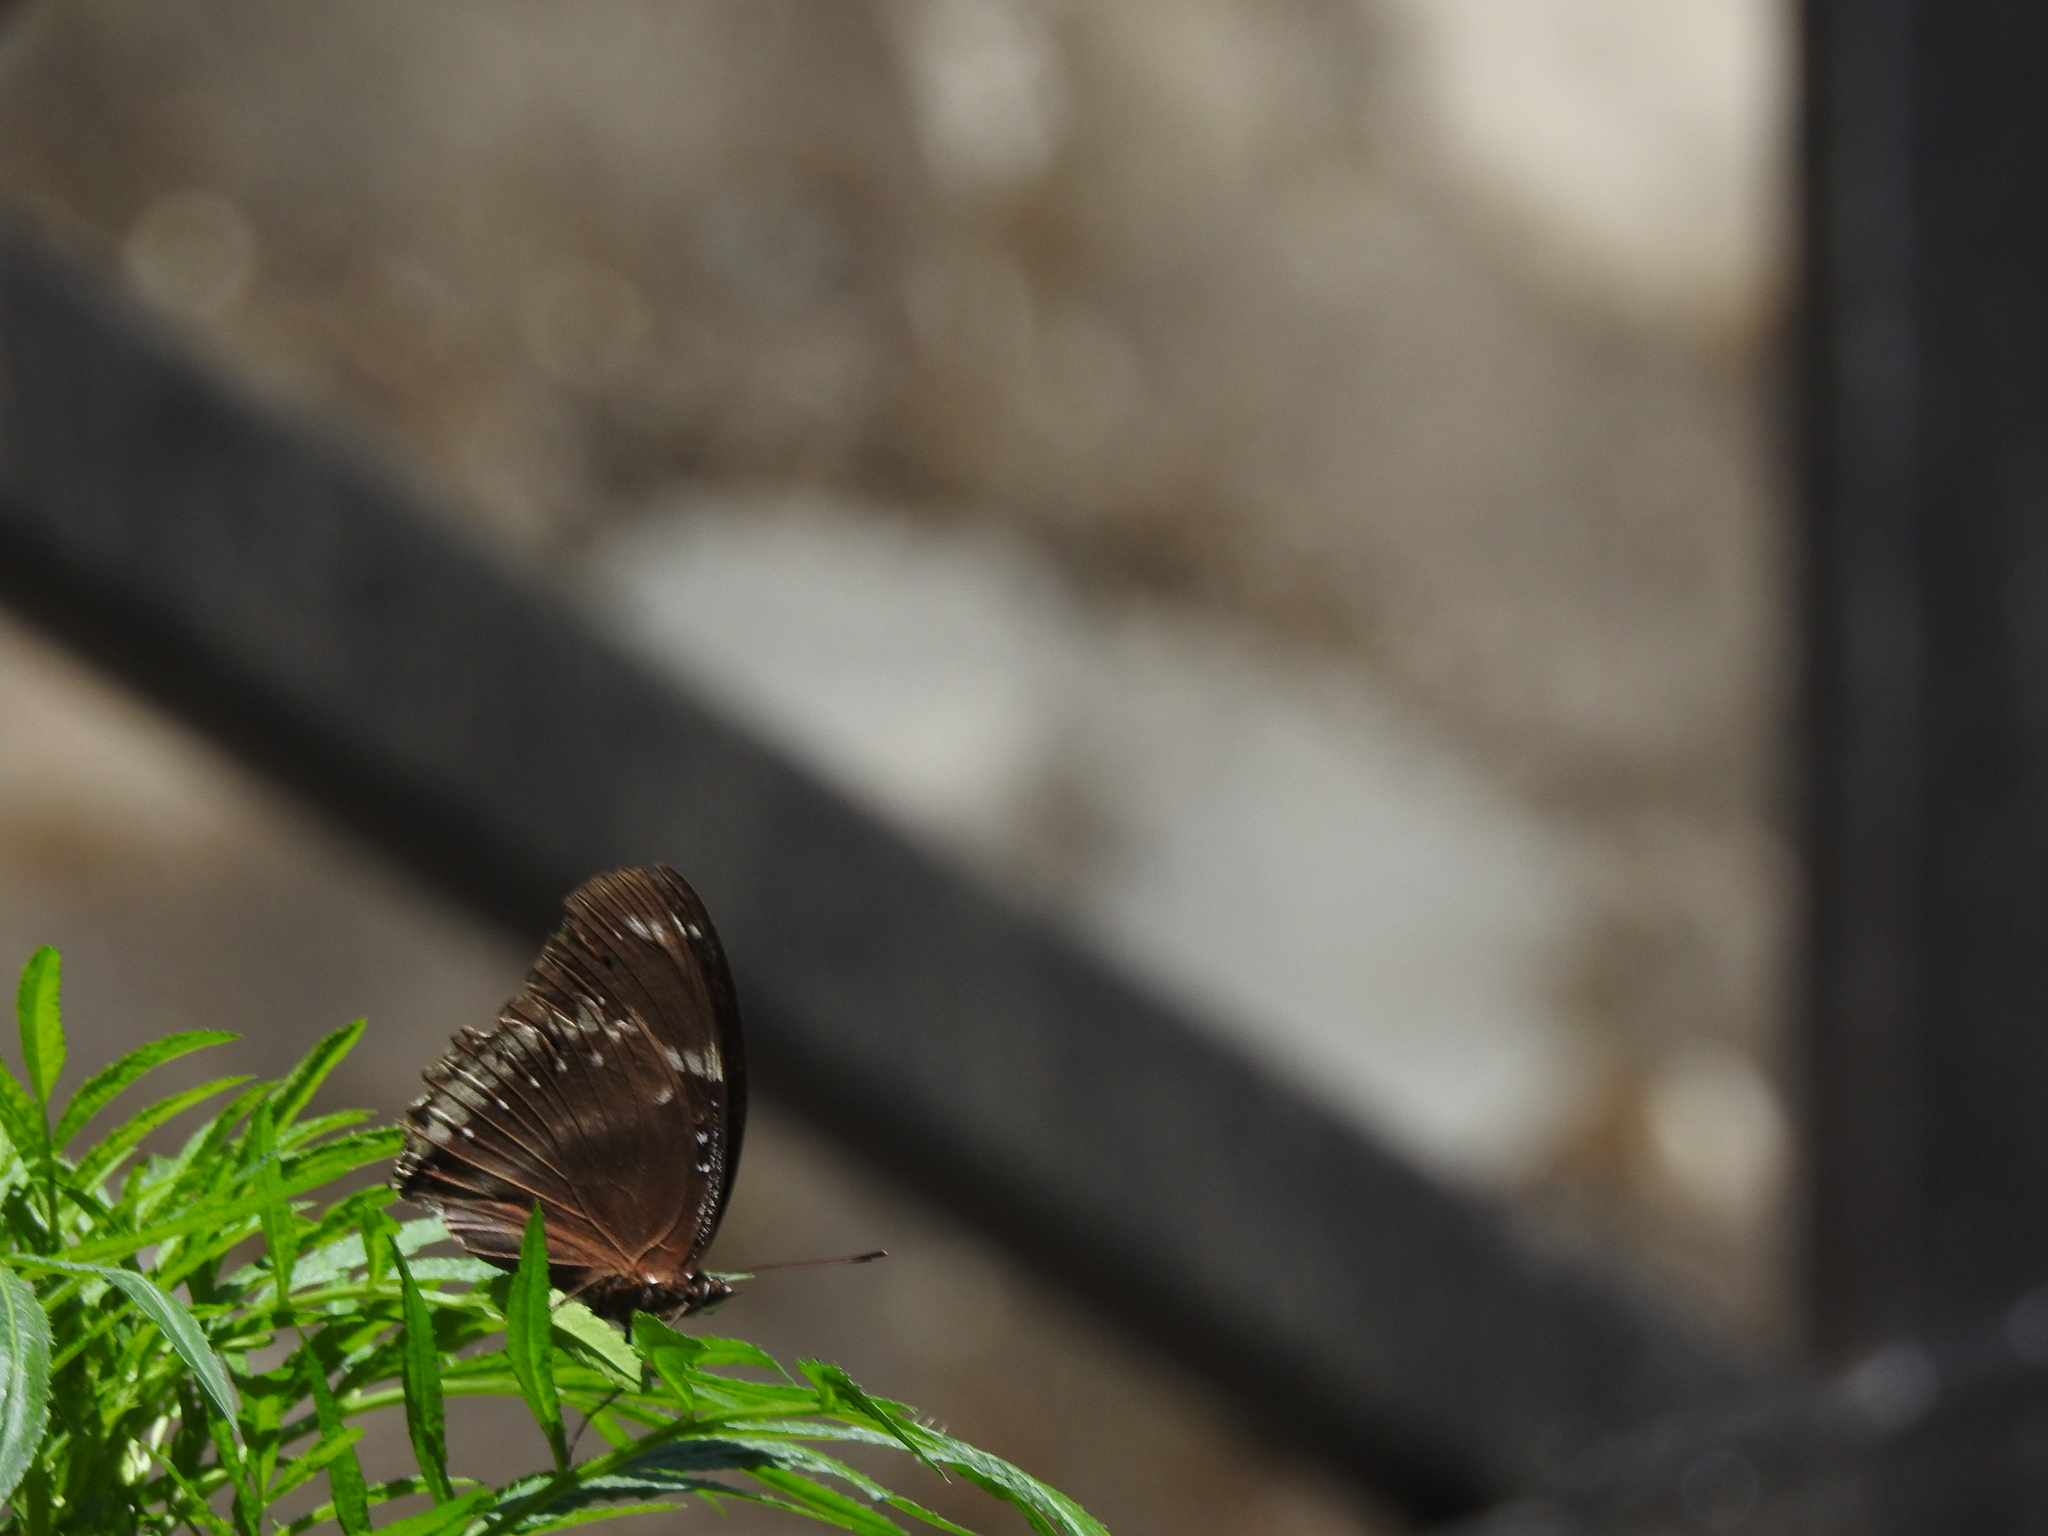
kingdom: Animalia
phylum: Arthropoda
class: Insecta
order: Lepidoptera
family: Nymphalidae
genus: Hypolimnas
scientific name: Hypolimnas bolina
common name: Great eggfly
